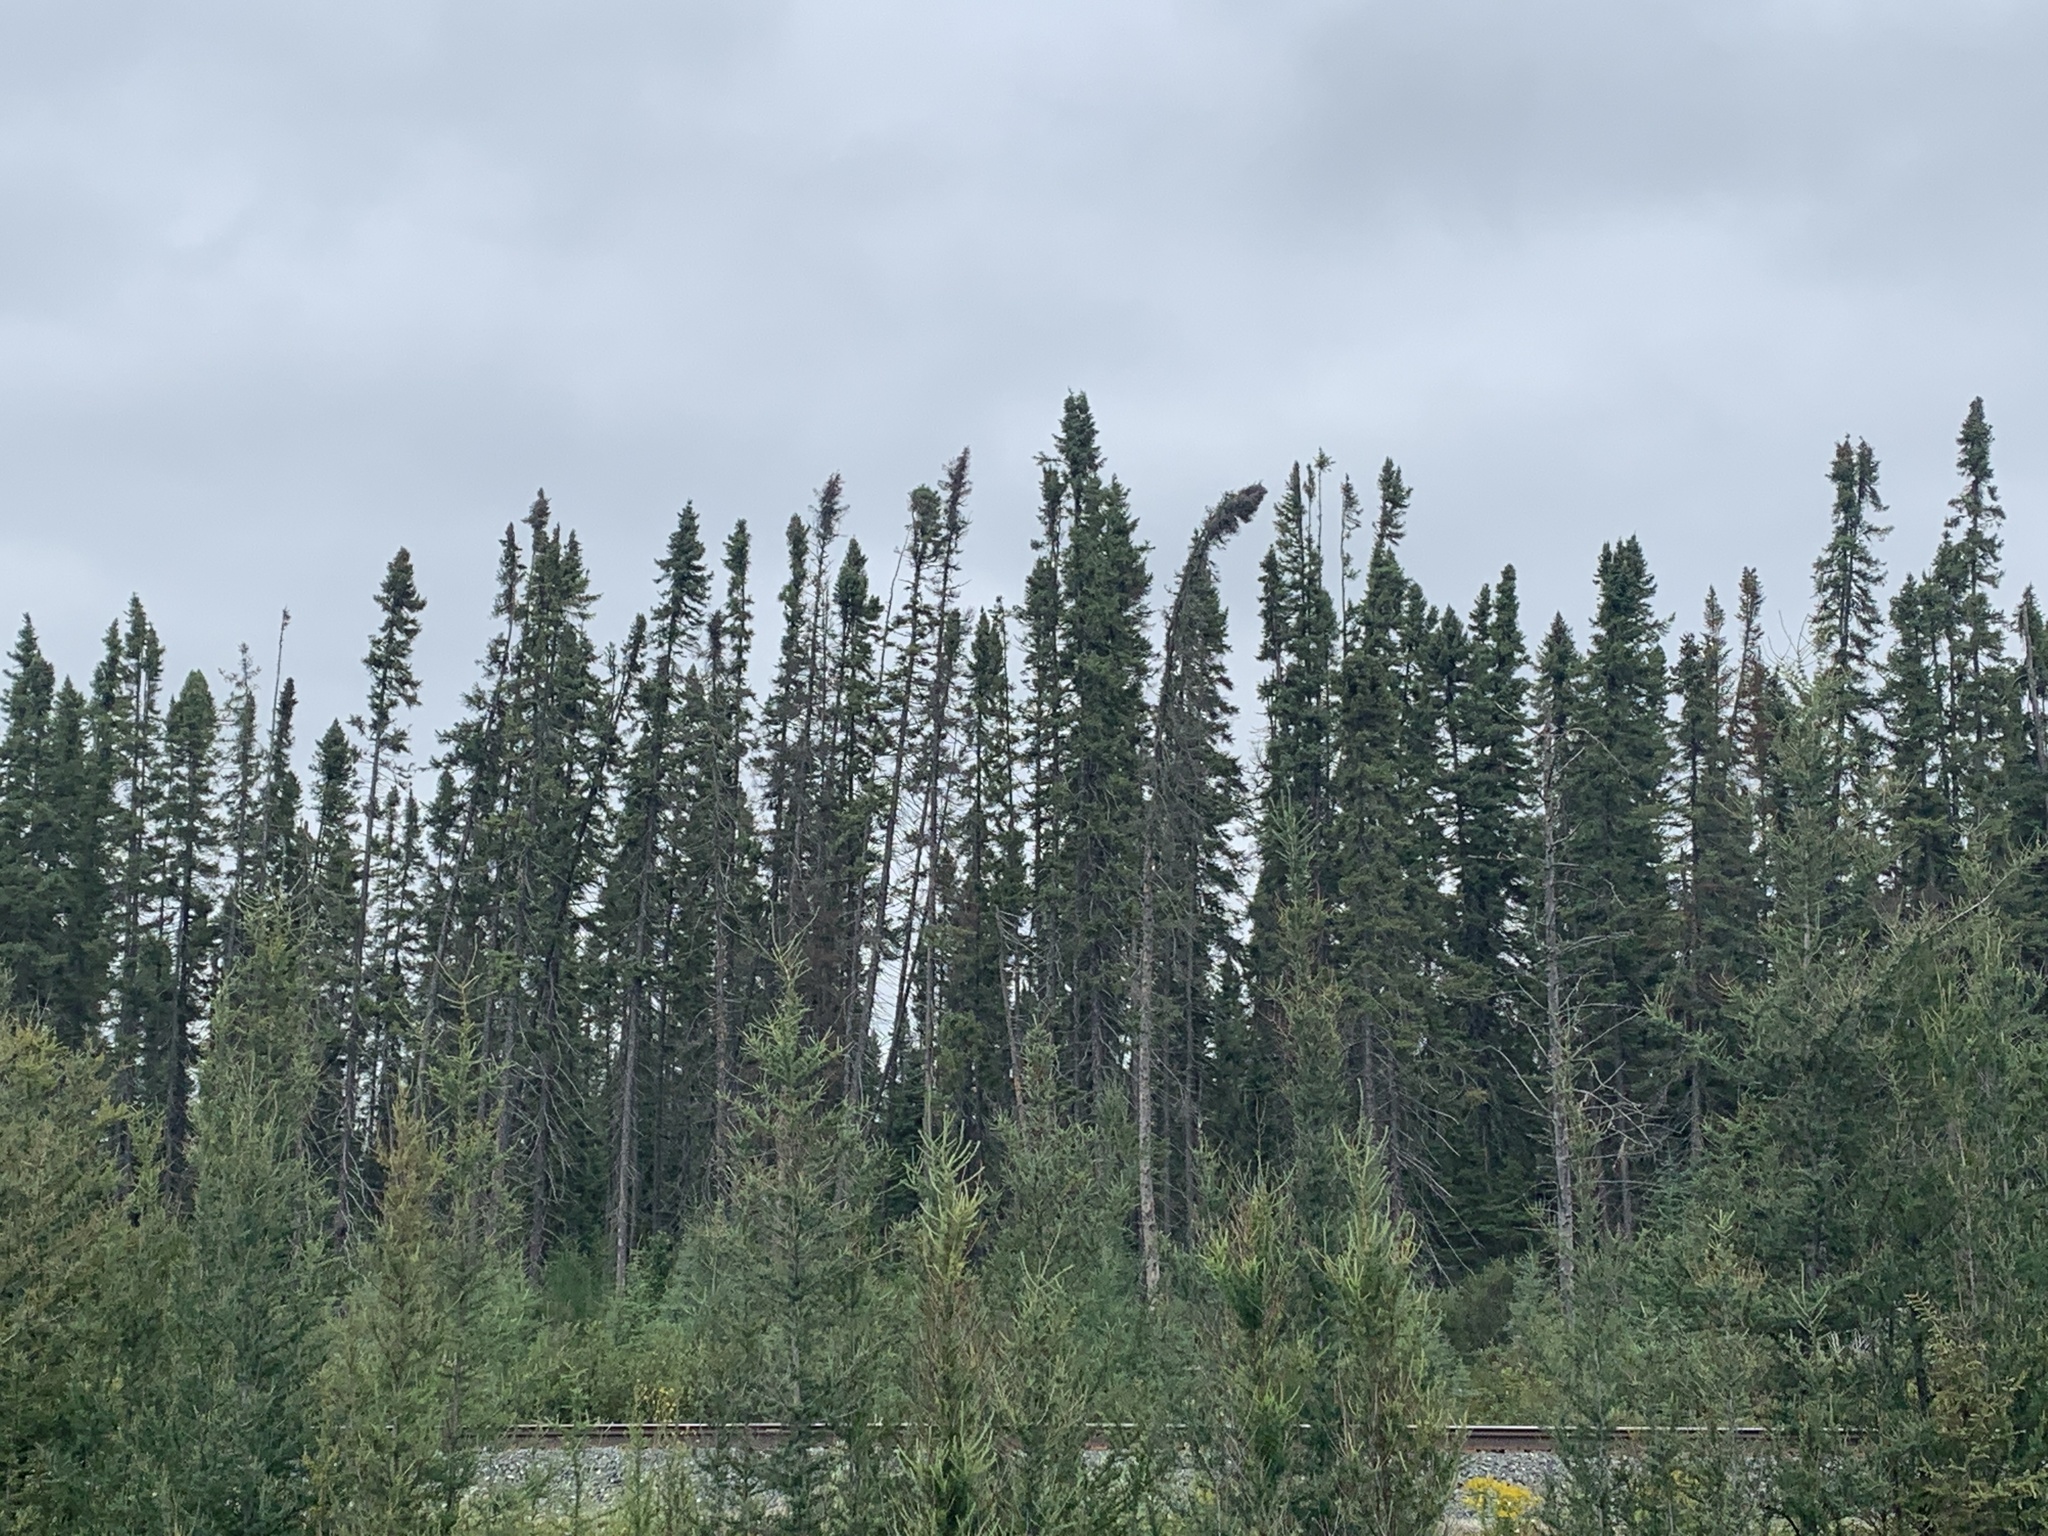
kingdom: Plantae
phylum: Tracheophyta
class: Pinopsida
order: Pinales
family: Pinaceae
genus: Picea
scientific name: Picea mariana
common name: Black spruce
